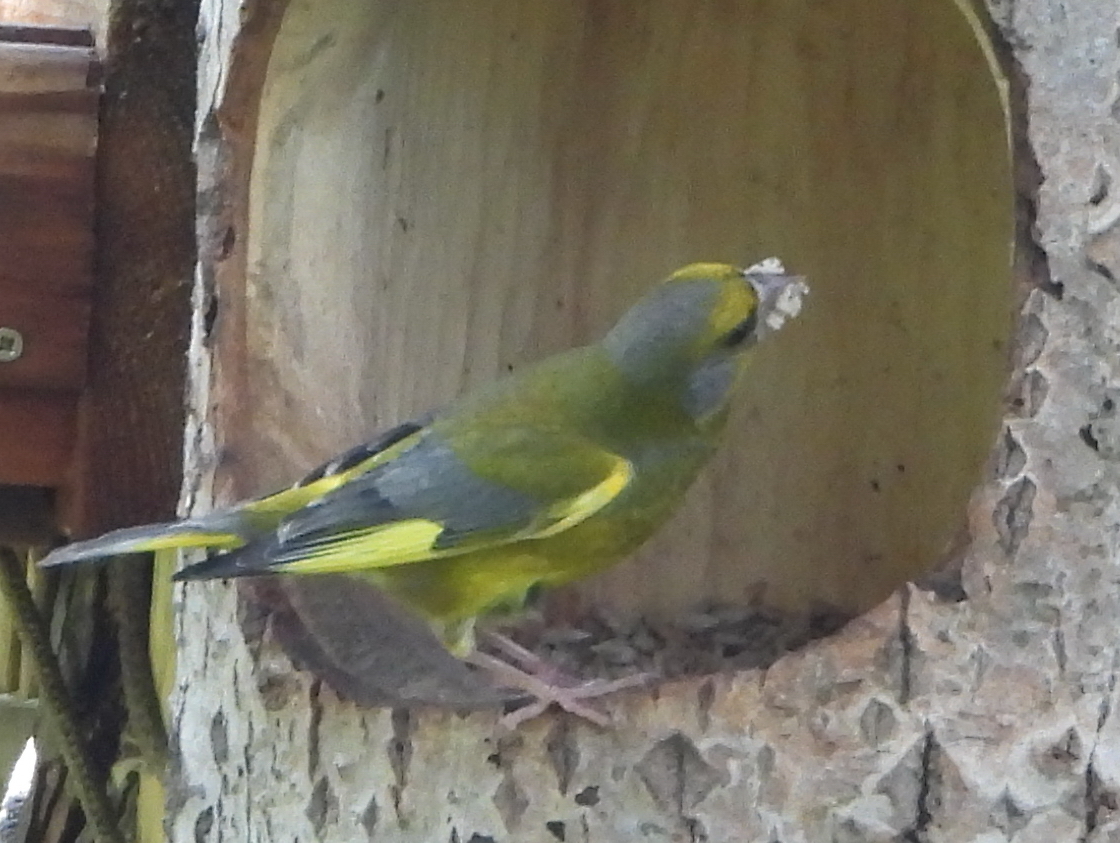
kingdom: Plantae
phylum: Tracheophyta
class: Liliopsida
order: Poales
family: Poaceae
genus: Chloris
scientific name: Chloris chloris
